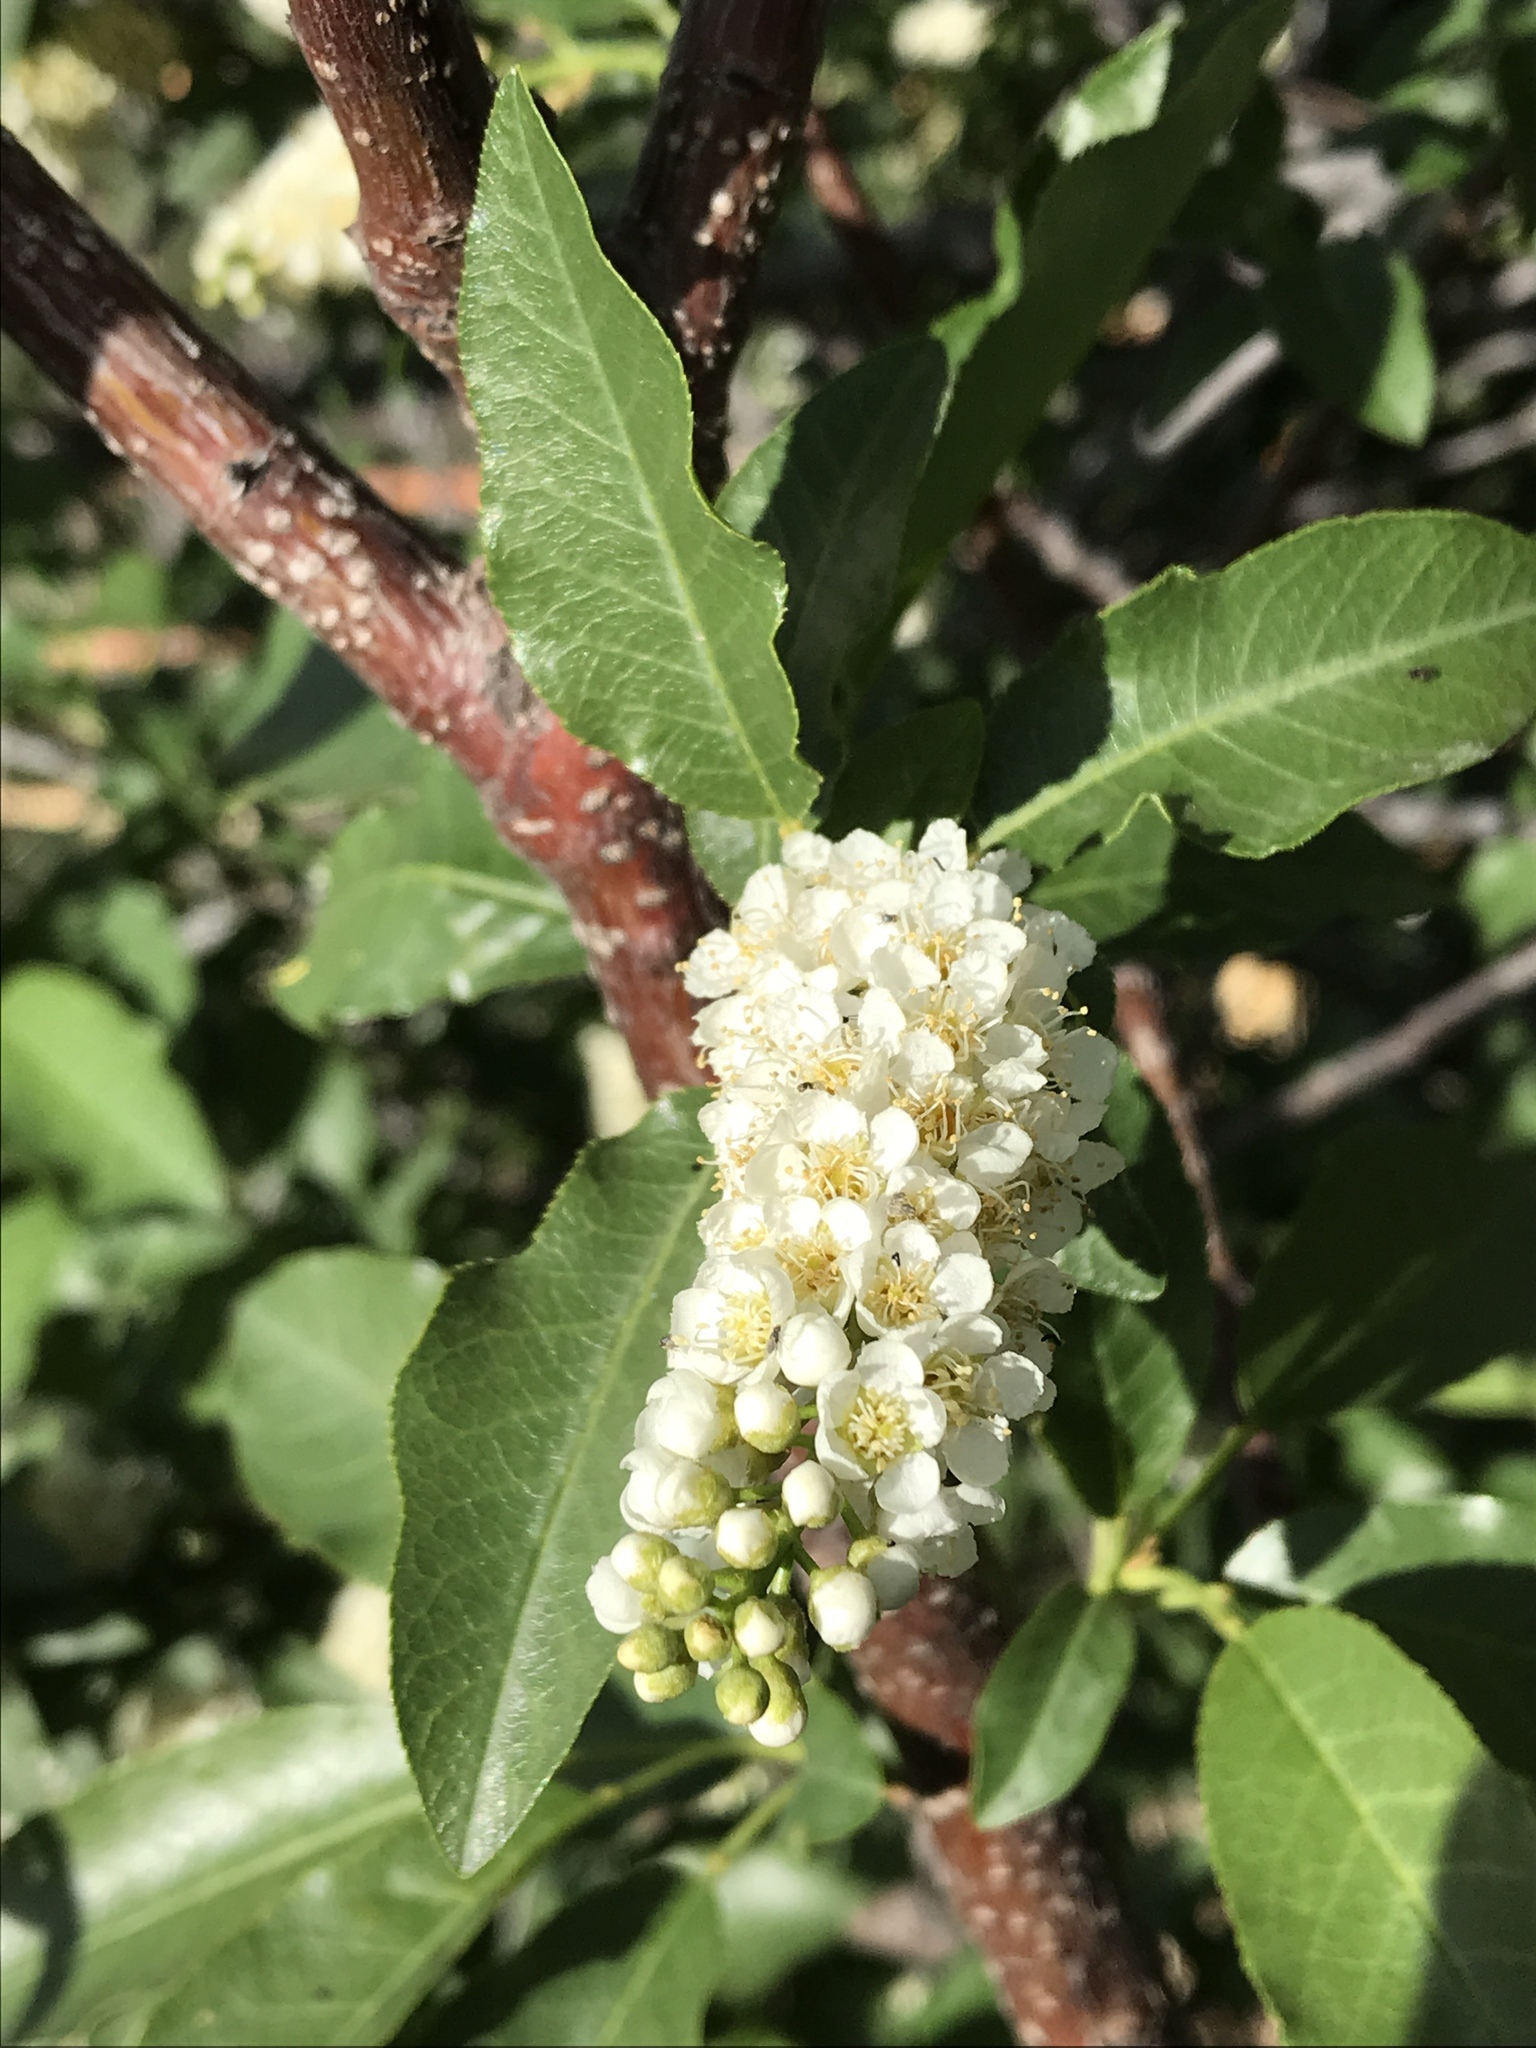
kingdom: Plantae
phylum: Tracheophyta
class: Magnoliopsida
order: Rosales
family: Rosaceae
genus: Prunus
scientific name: Prunus virginiana
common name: Chokecherry
